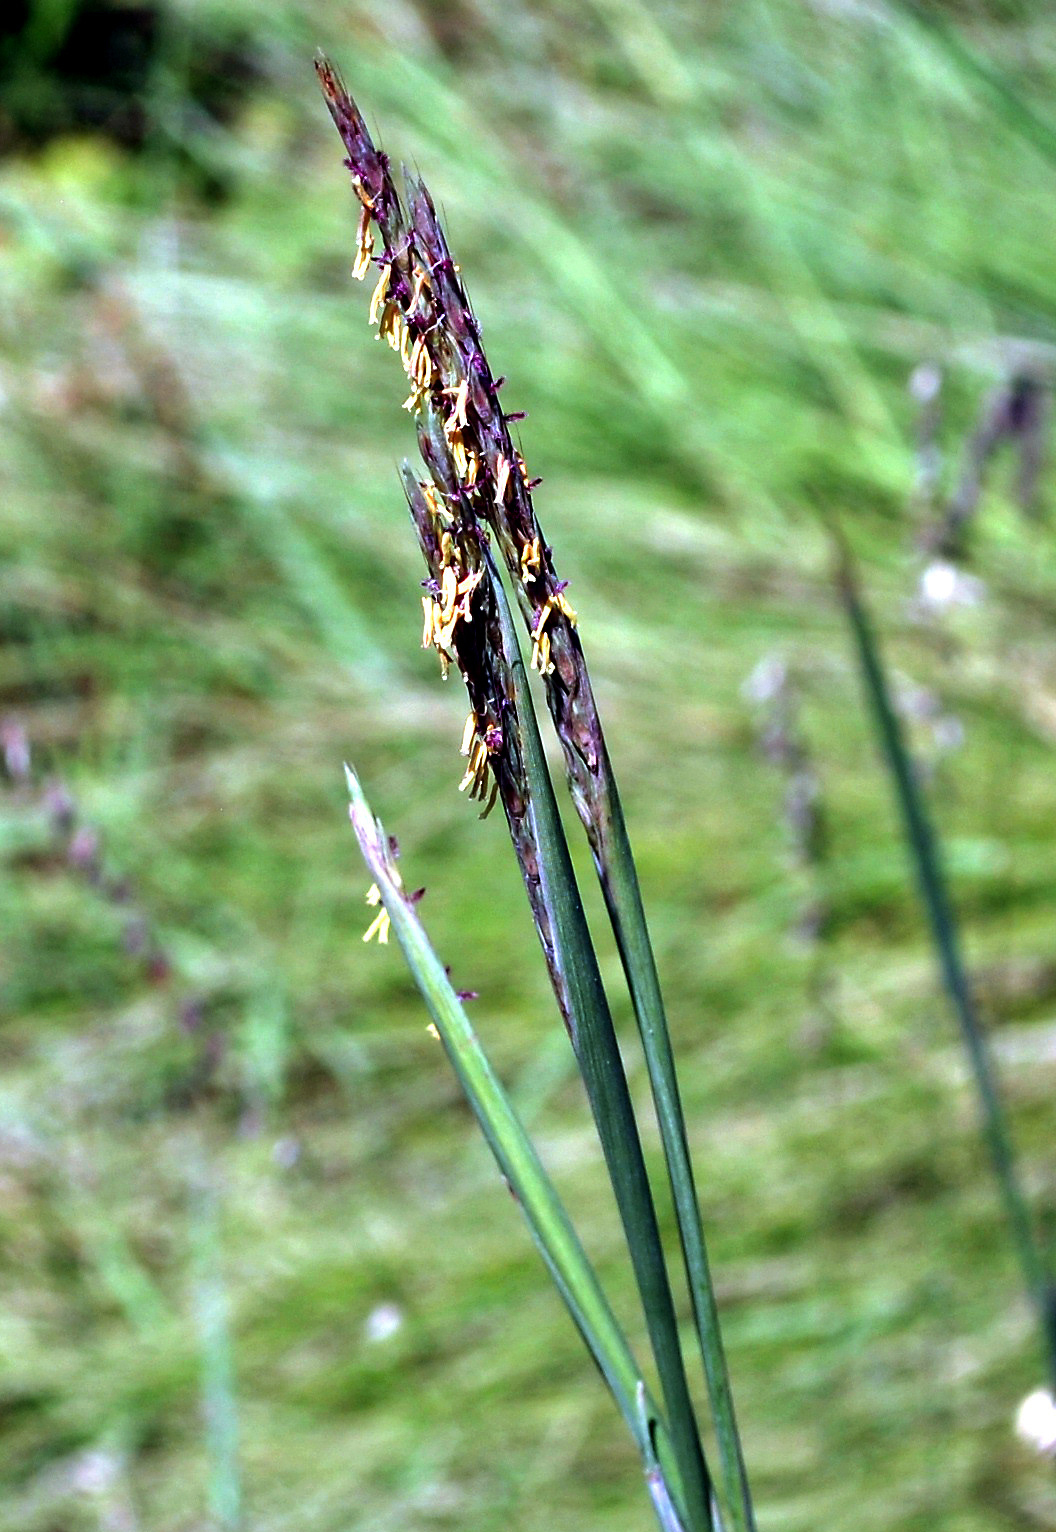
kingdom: Plantae
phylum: Tracheophyta
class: Liliopsida
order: Poales
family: Poaceae
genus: Andropogon
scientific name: Andropogon gerardi
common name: Big bluestem
